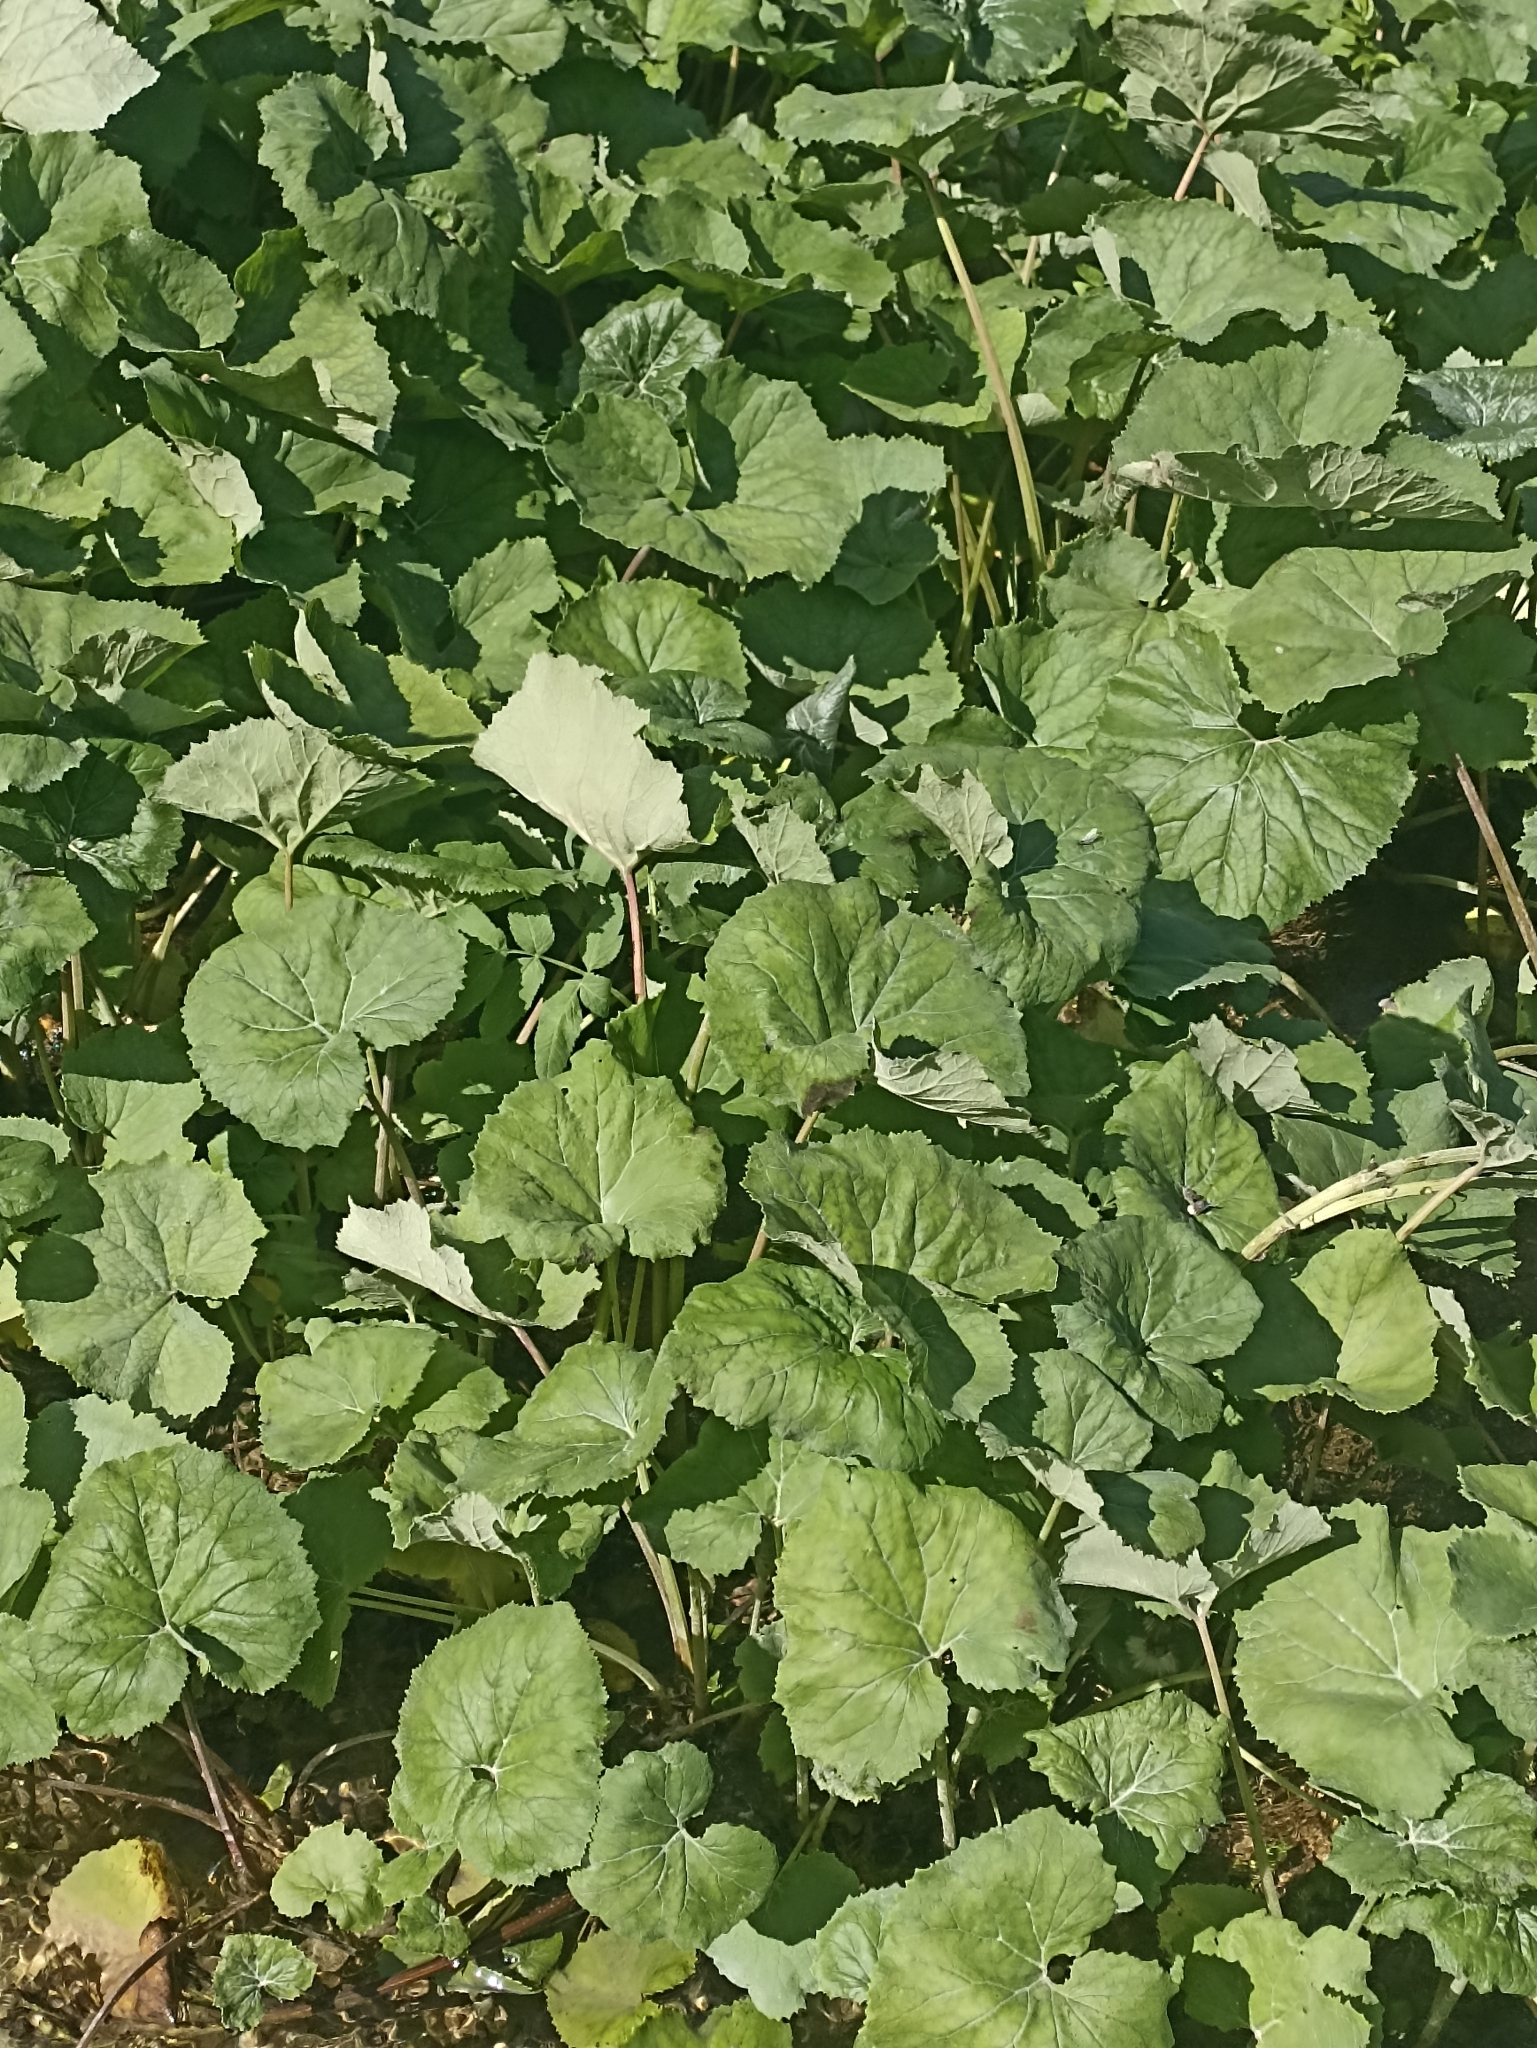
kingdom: Plantae
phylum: Tracheophyta
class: Magnoliopsida
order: Asterales
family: Asteraceae
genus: Tussilago
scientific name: Tussilago farfara
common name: Coltsfoot
